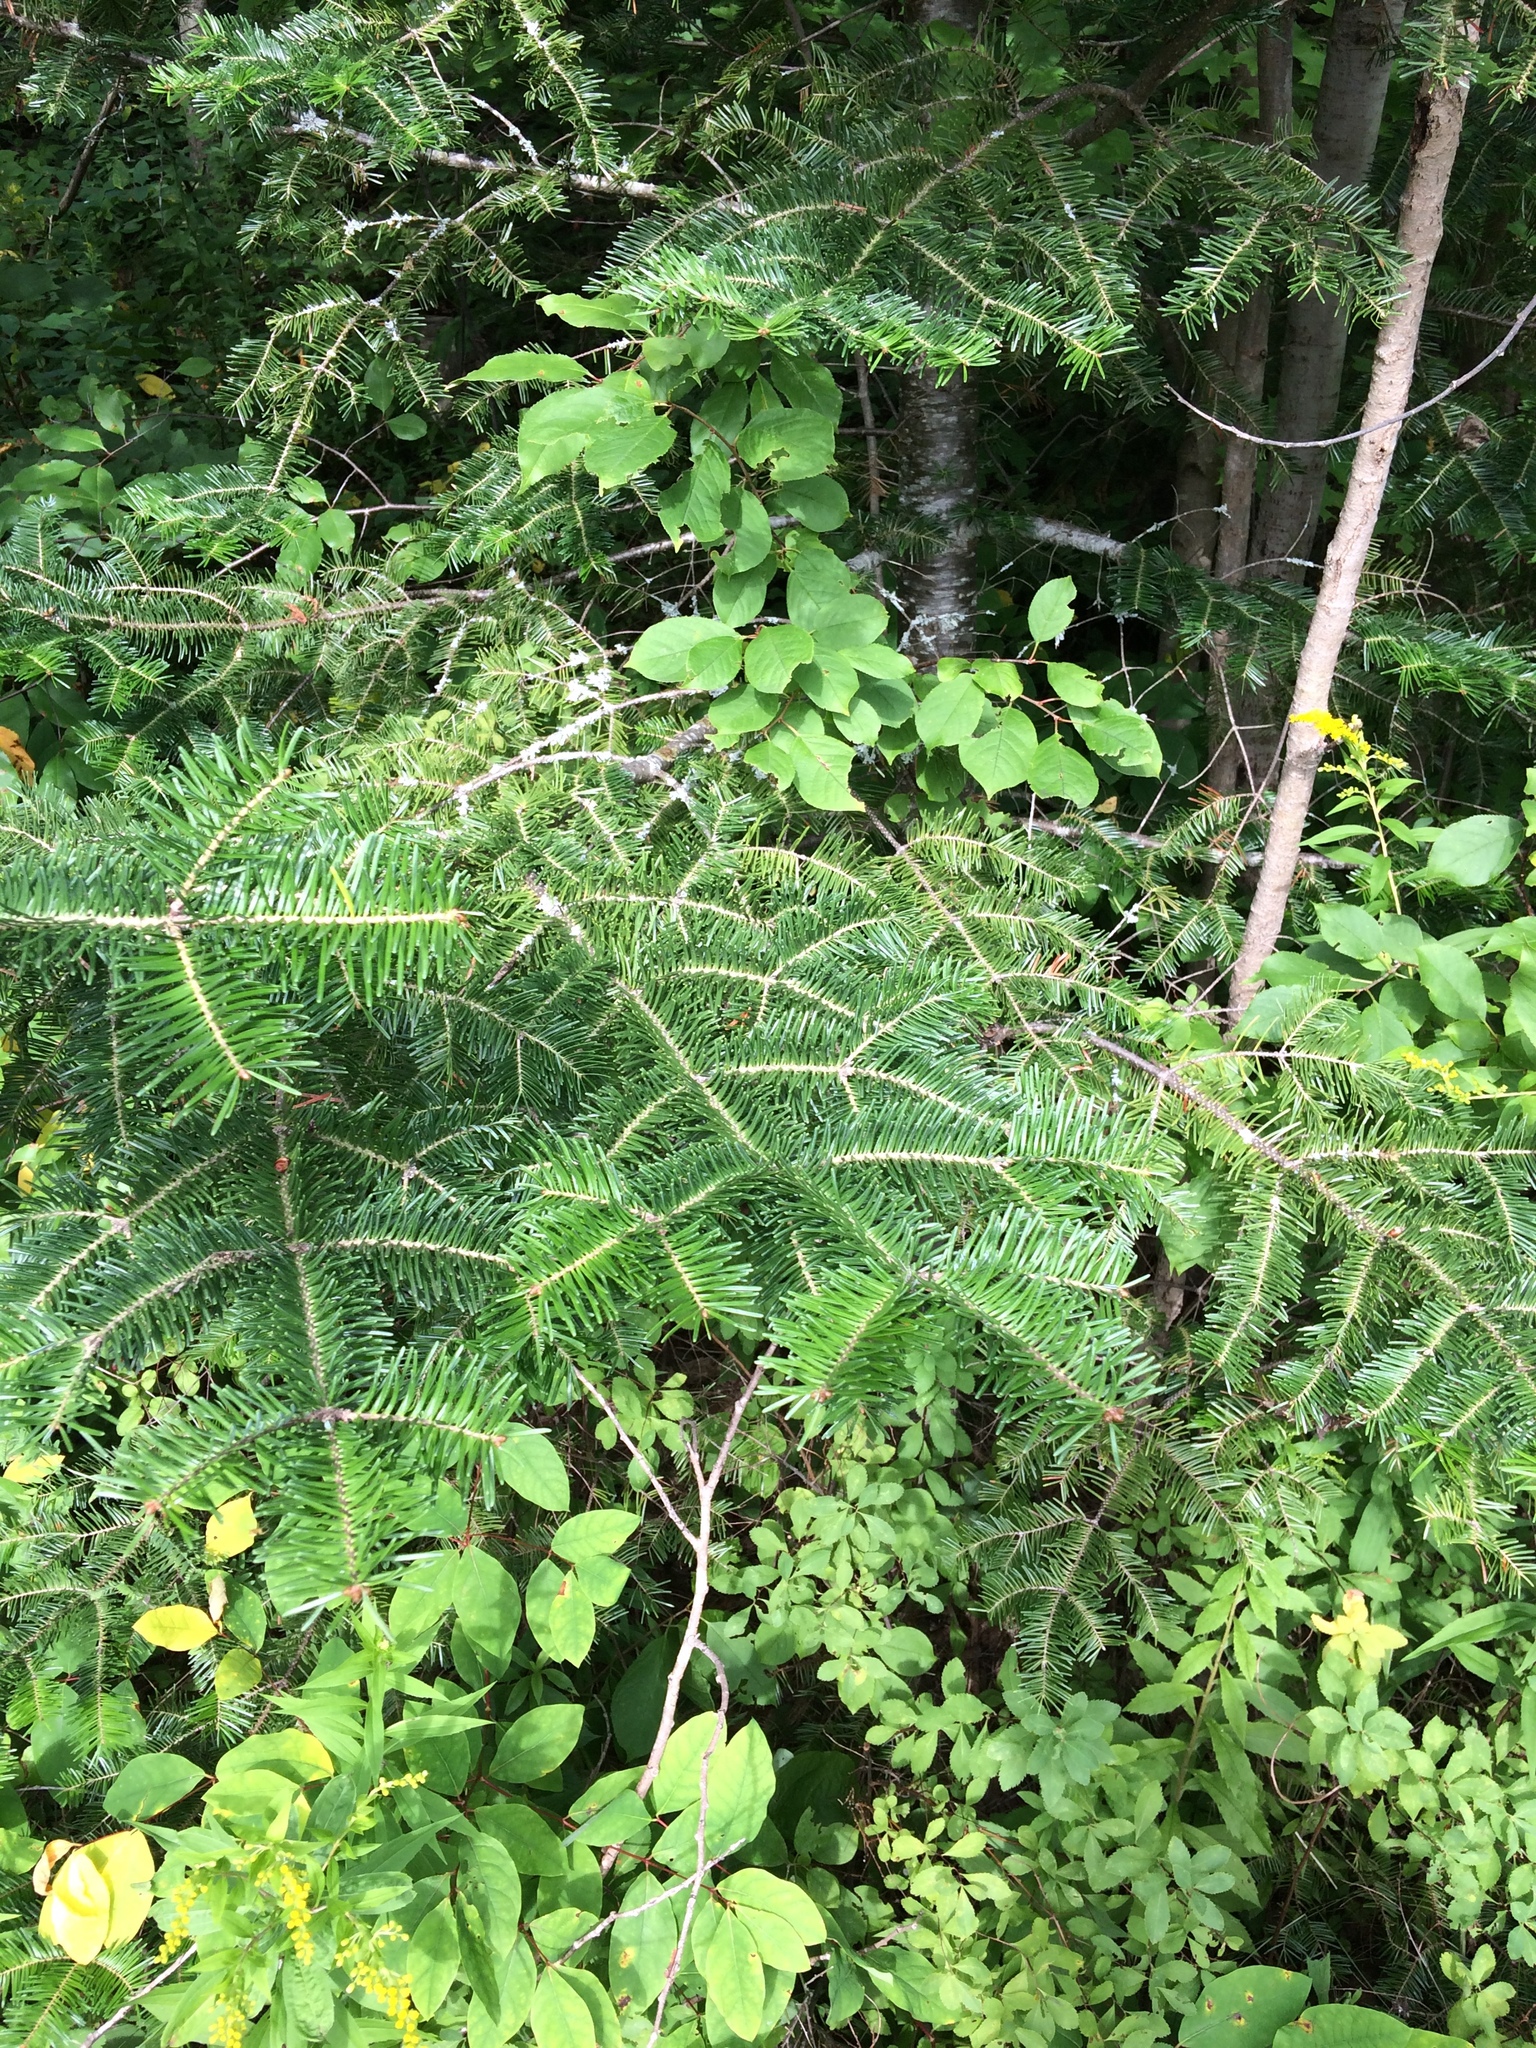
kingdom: Plantae
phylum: Tracheophyta
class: Pinopsida
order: Pinales
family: Pinaceae
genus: Abies
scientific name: Abies balsamea
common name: Balsam fir
